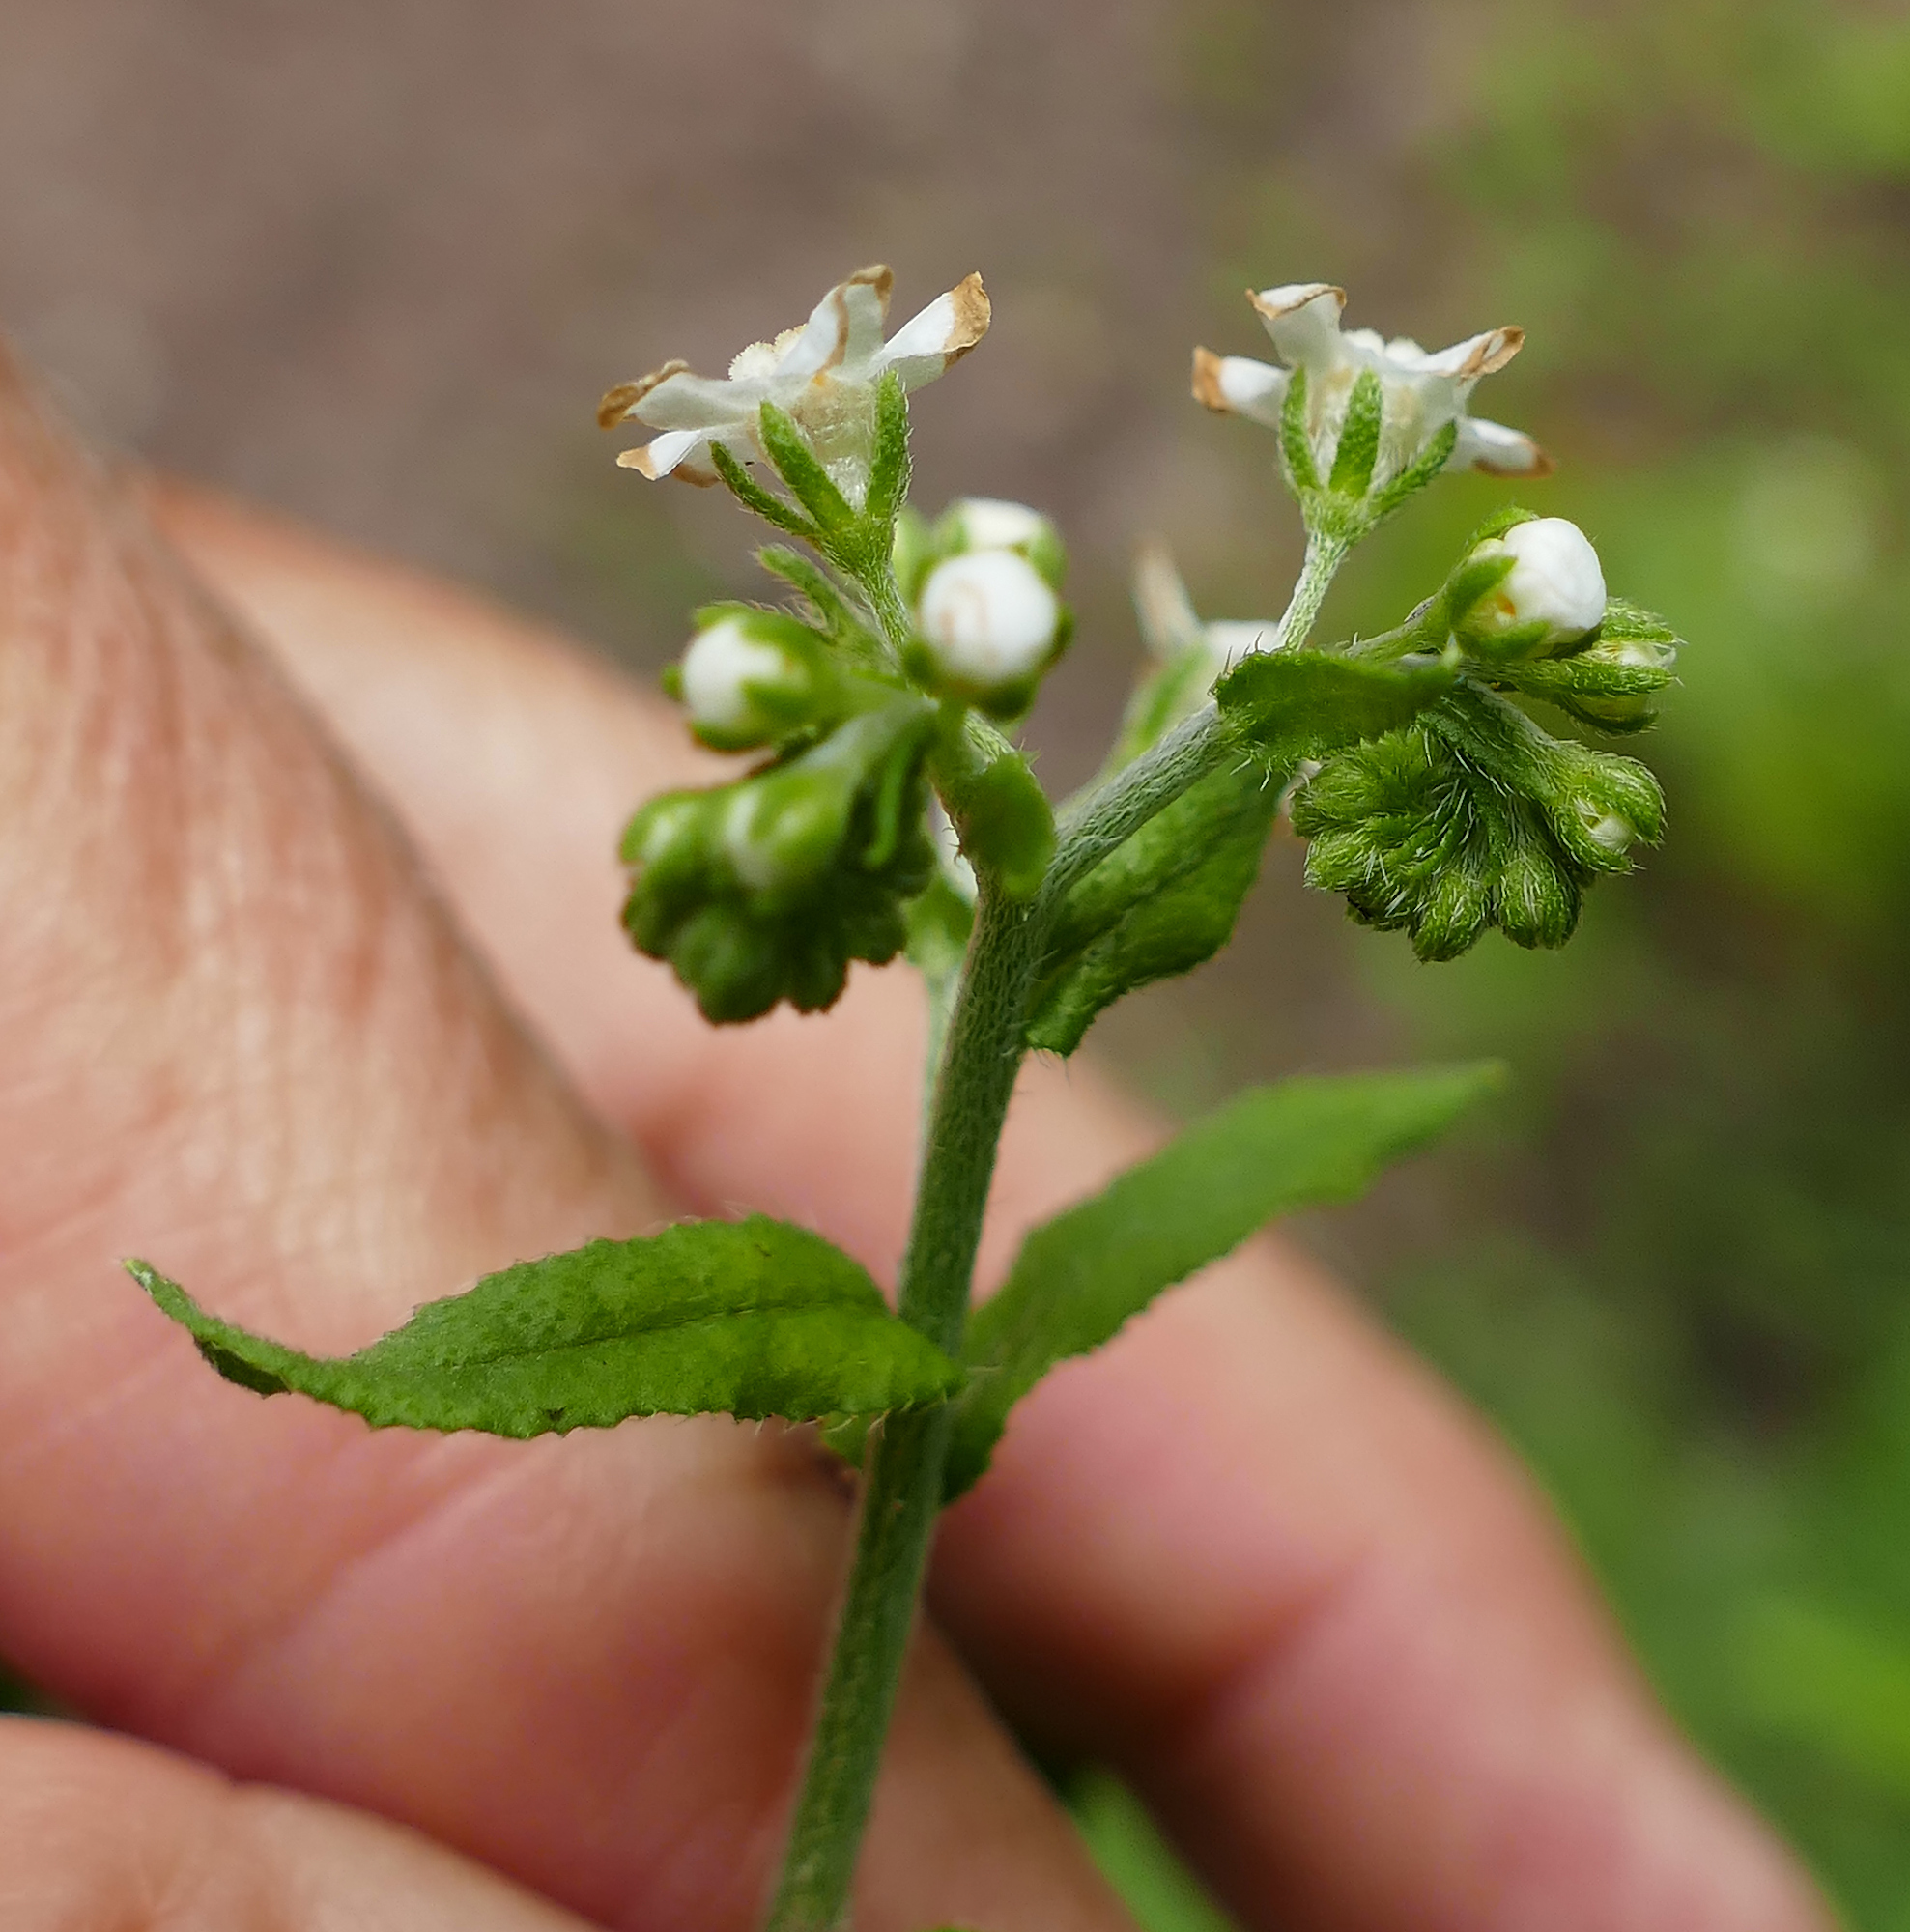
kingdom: Plantae
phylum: Tracheophyta
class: Magnoliopsida
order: Boraginales
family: Boraginaceae
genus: Hackelia
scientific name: Hackelia ursina
